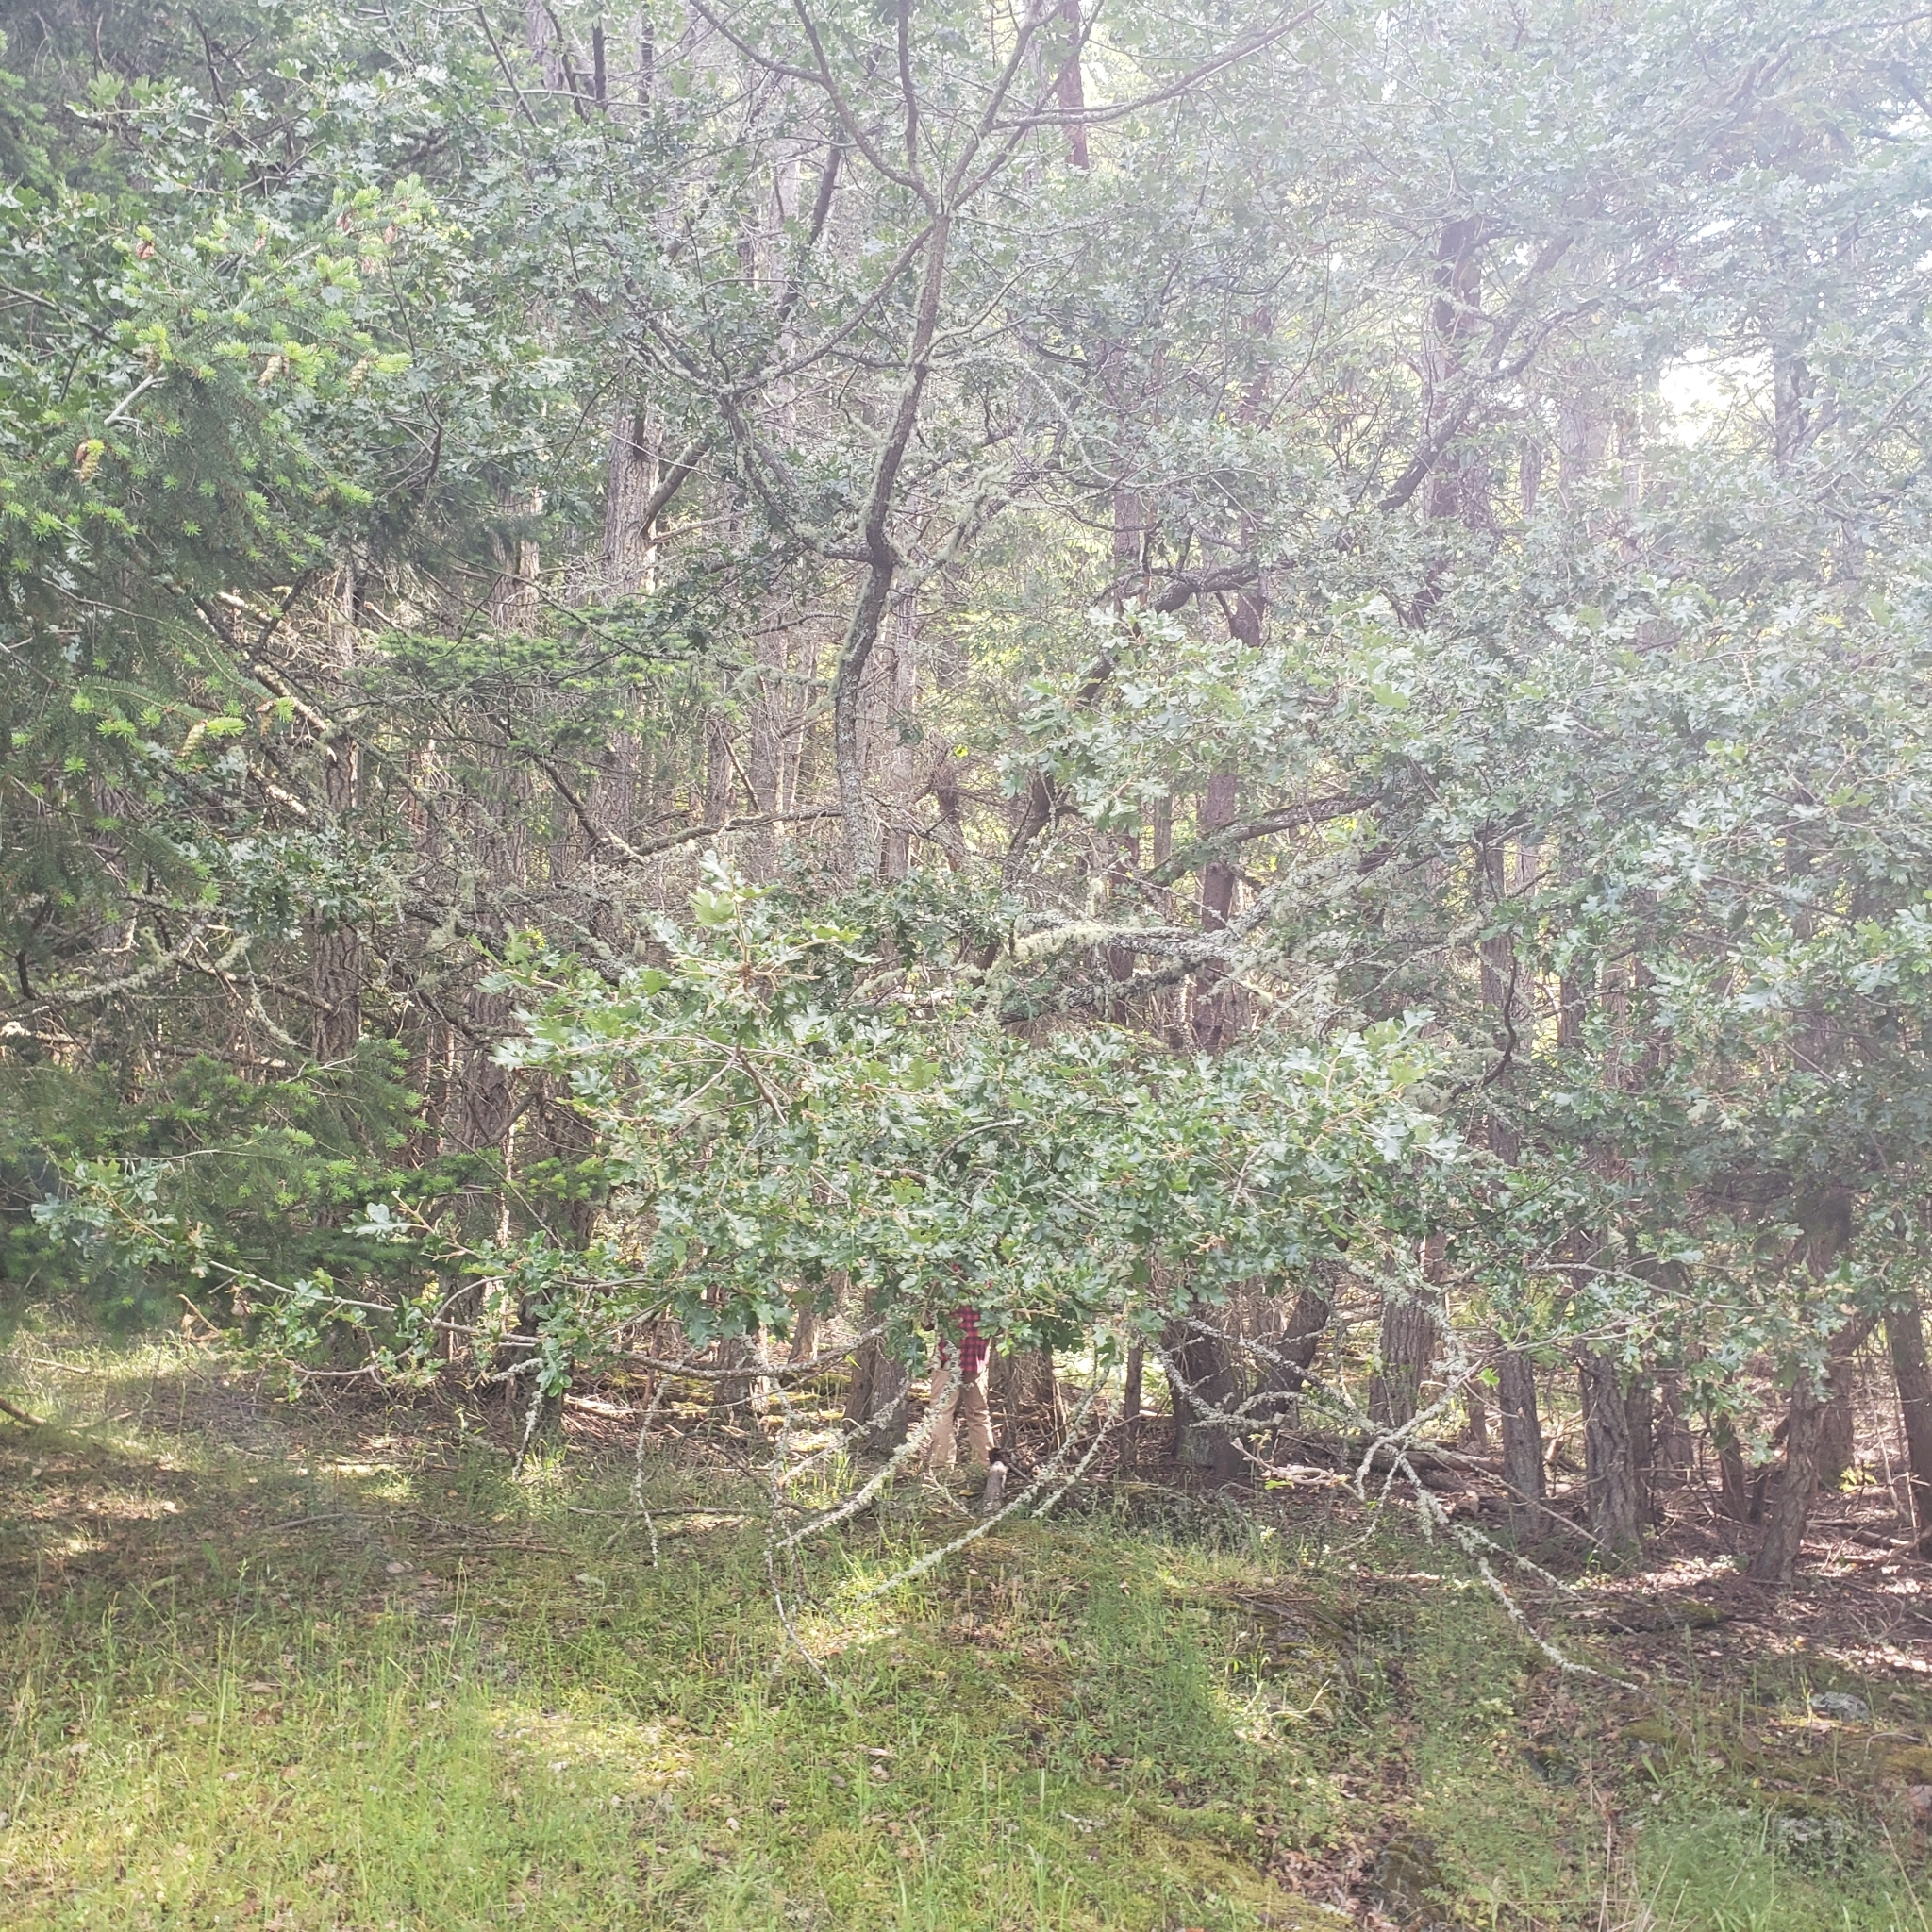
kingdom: Plantae
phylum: Tracheophyta
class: Magnoliopsida
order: Fagales
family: Fagaceae
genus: Quercus
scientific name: Quercus garryana
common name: Garry oak
